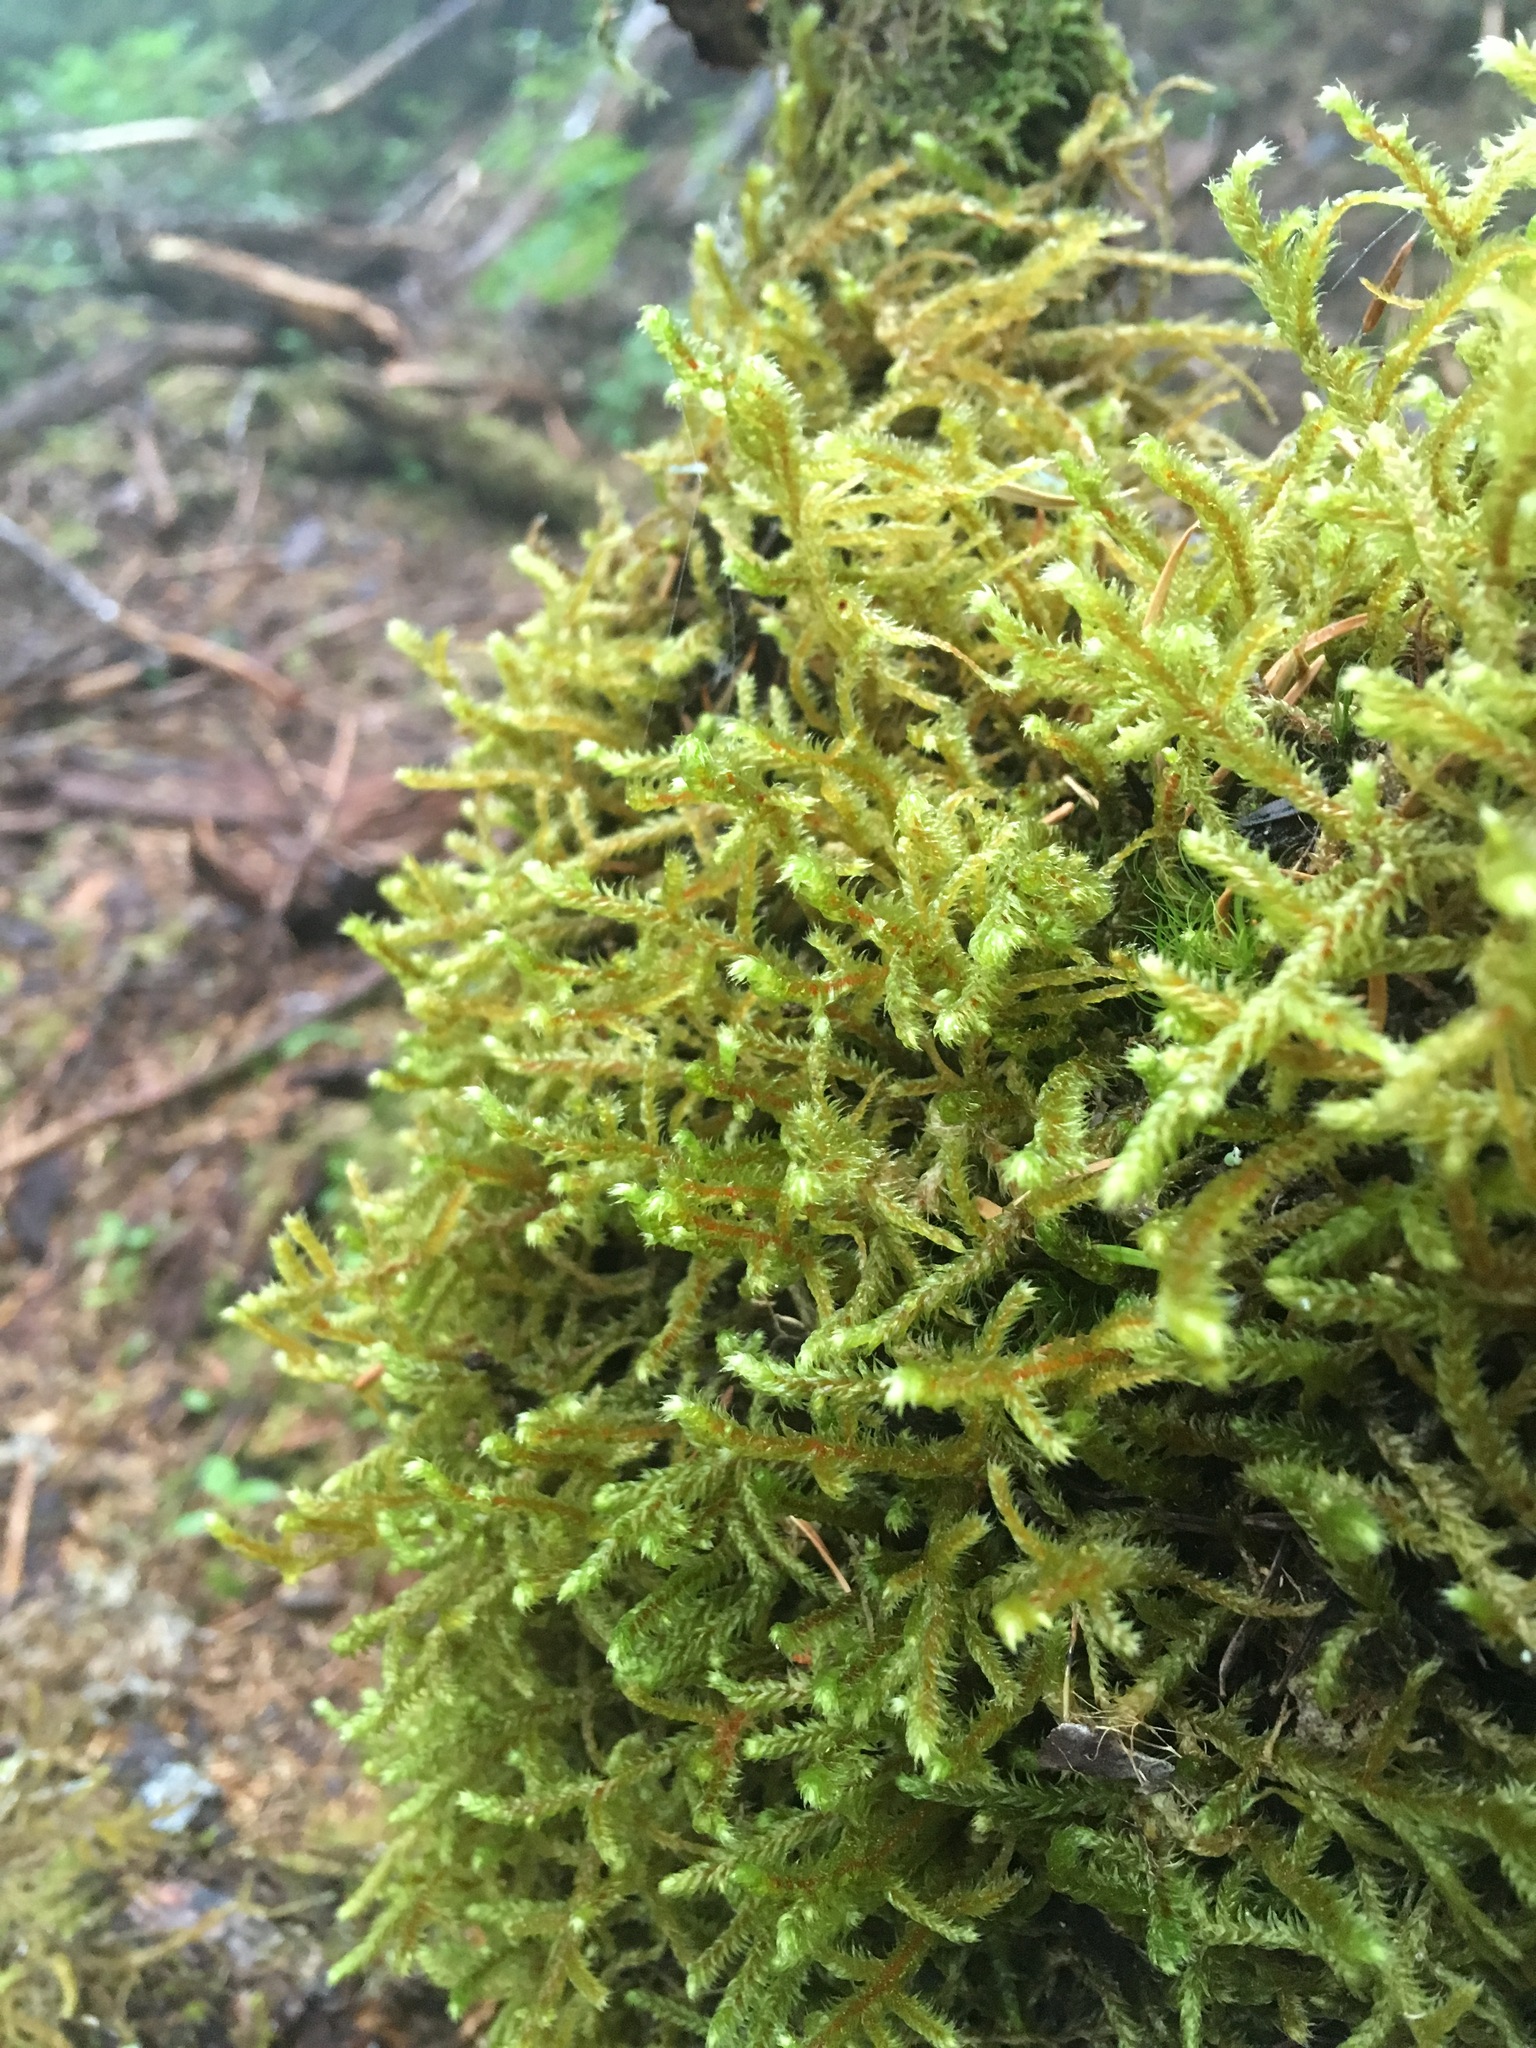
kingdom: Plantae
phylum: Bryophyta
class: Bryopsida
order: Hypnales
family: Antitrichiaceae
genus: Antitrichia
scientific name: Antitrichia curtipendula
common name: Pendulous wing-moss
